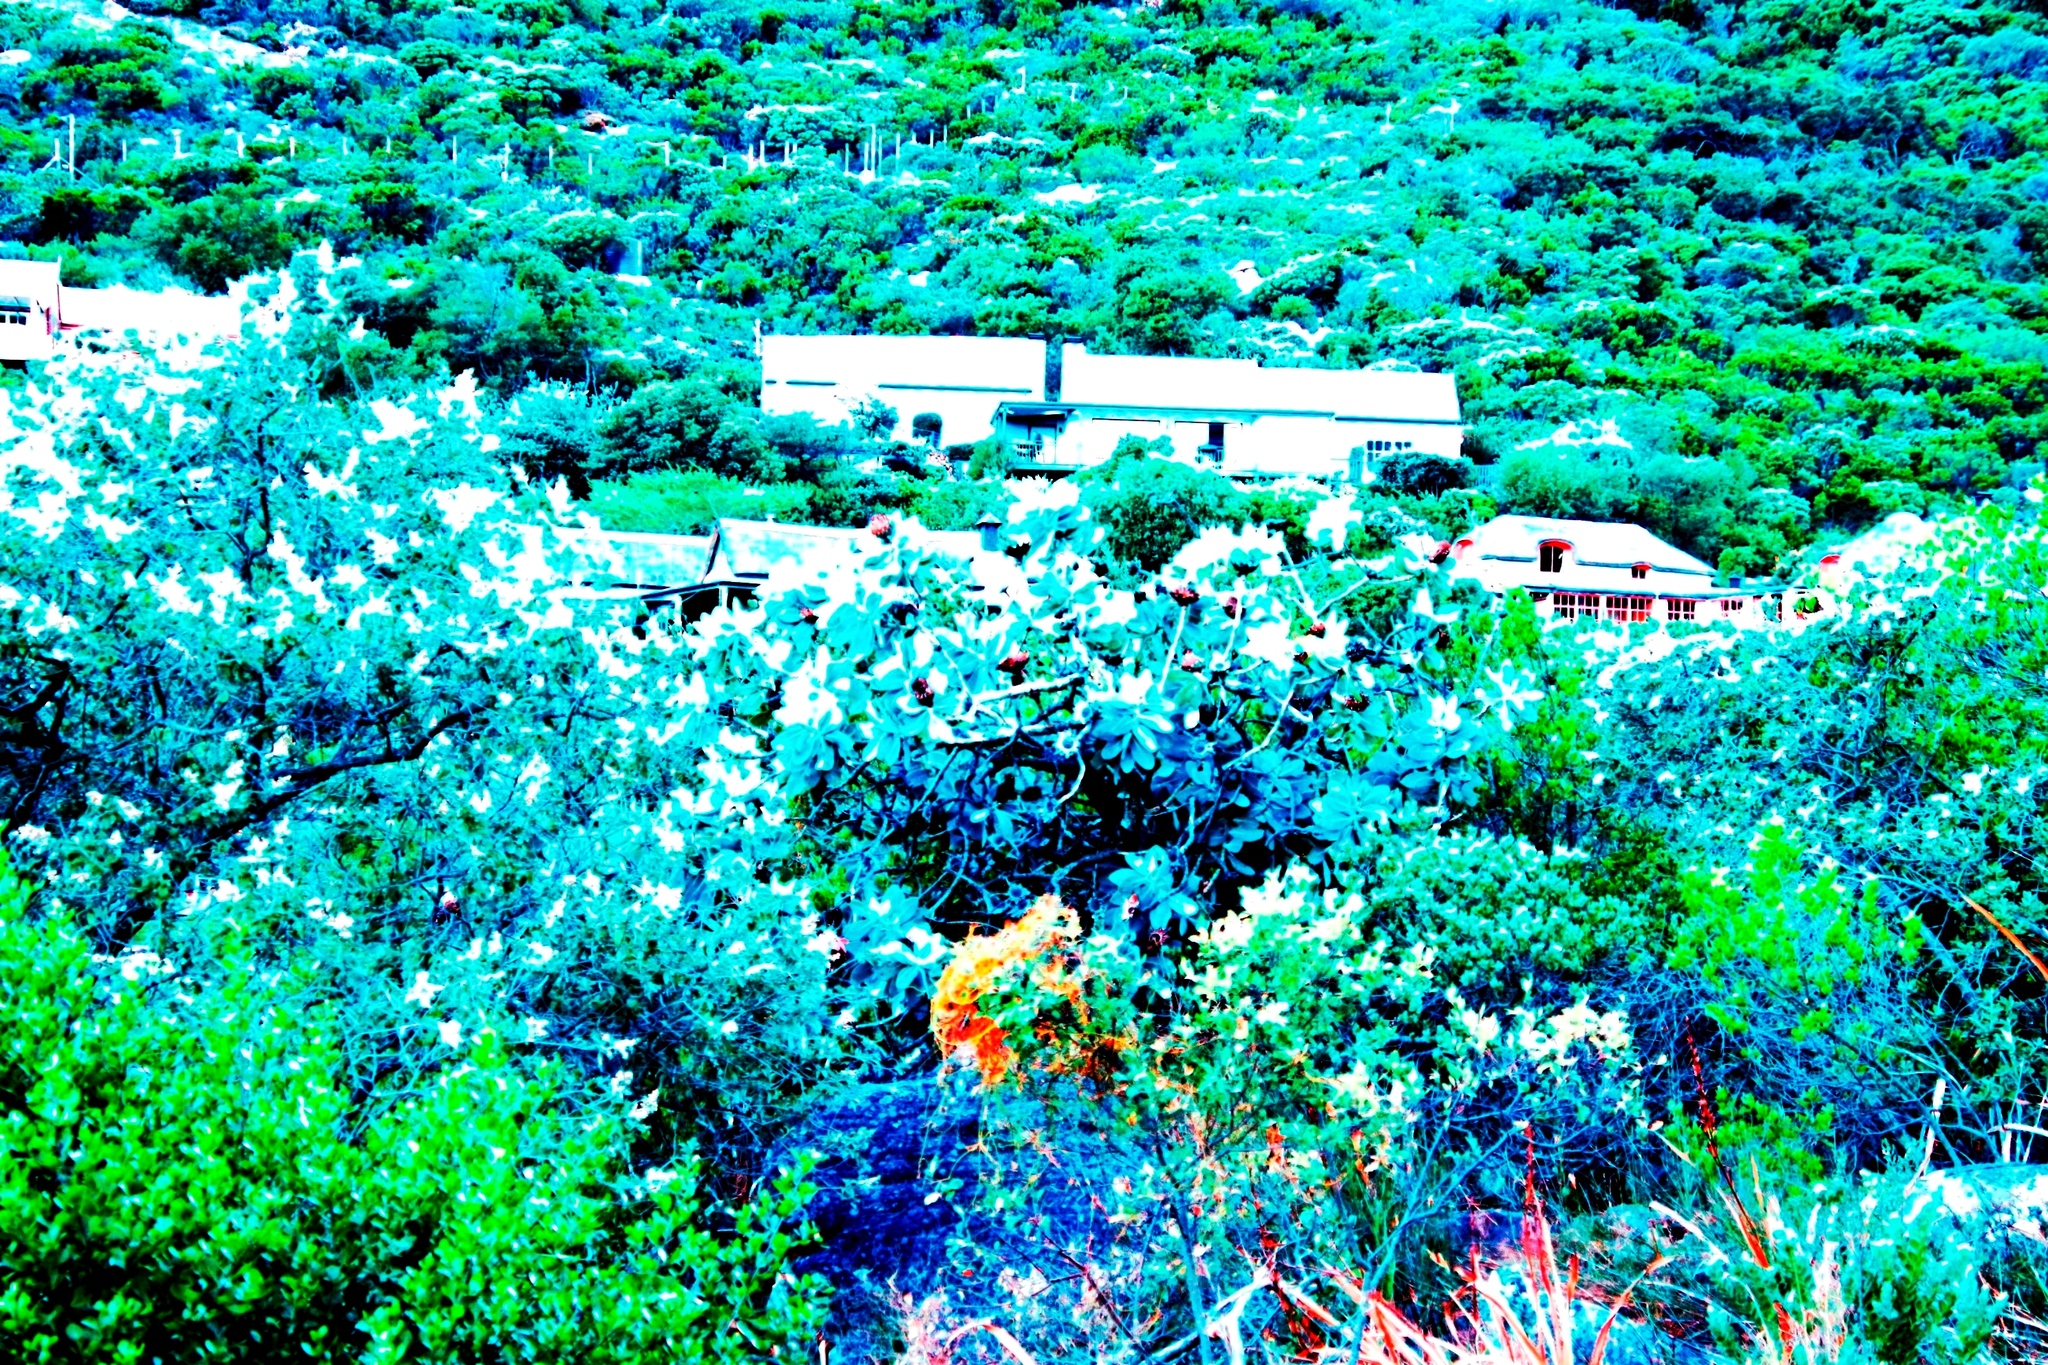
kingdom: Plantae
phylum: Tracheophyta
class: Magnoliopsida
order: Proteales
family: Proteaceae
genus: Protea
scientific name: Protea nitida
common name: Tree protea
